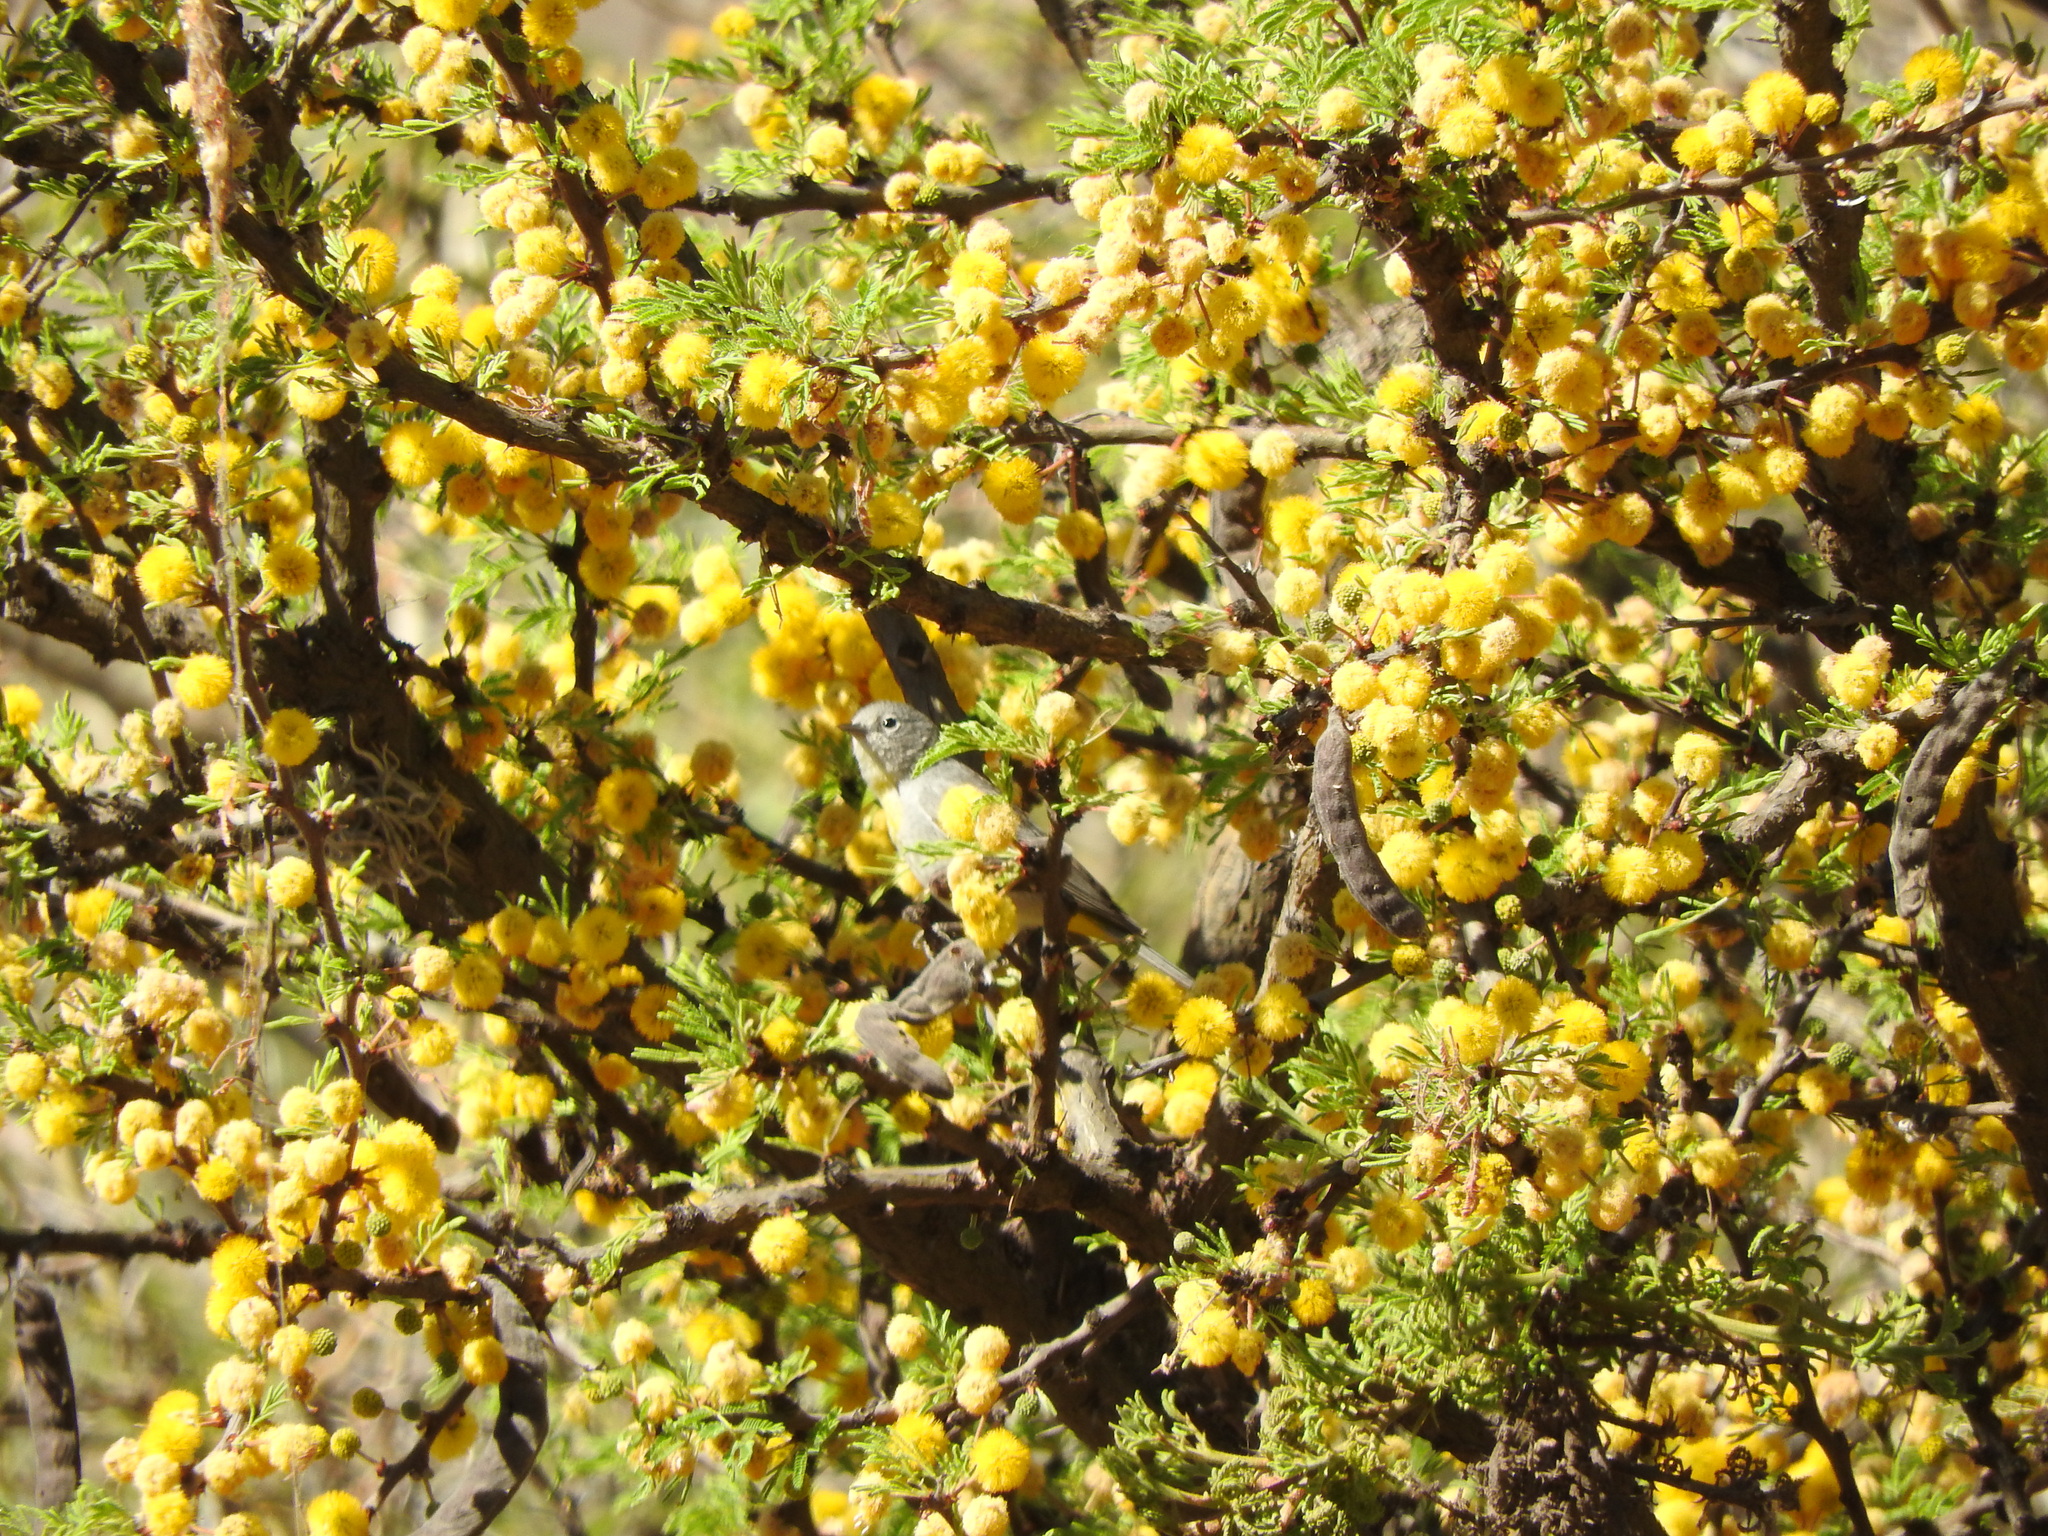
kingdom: Animalia
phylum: Chordata
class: Aves
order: Passeriformes
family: Parulidae
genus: Leiothlypis
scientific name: Leiothlypis virginiae
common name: Virginia's warbler
